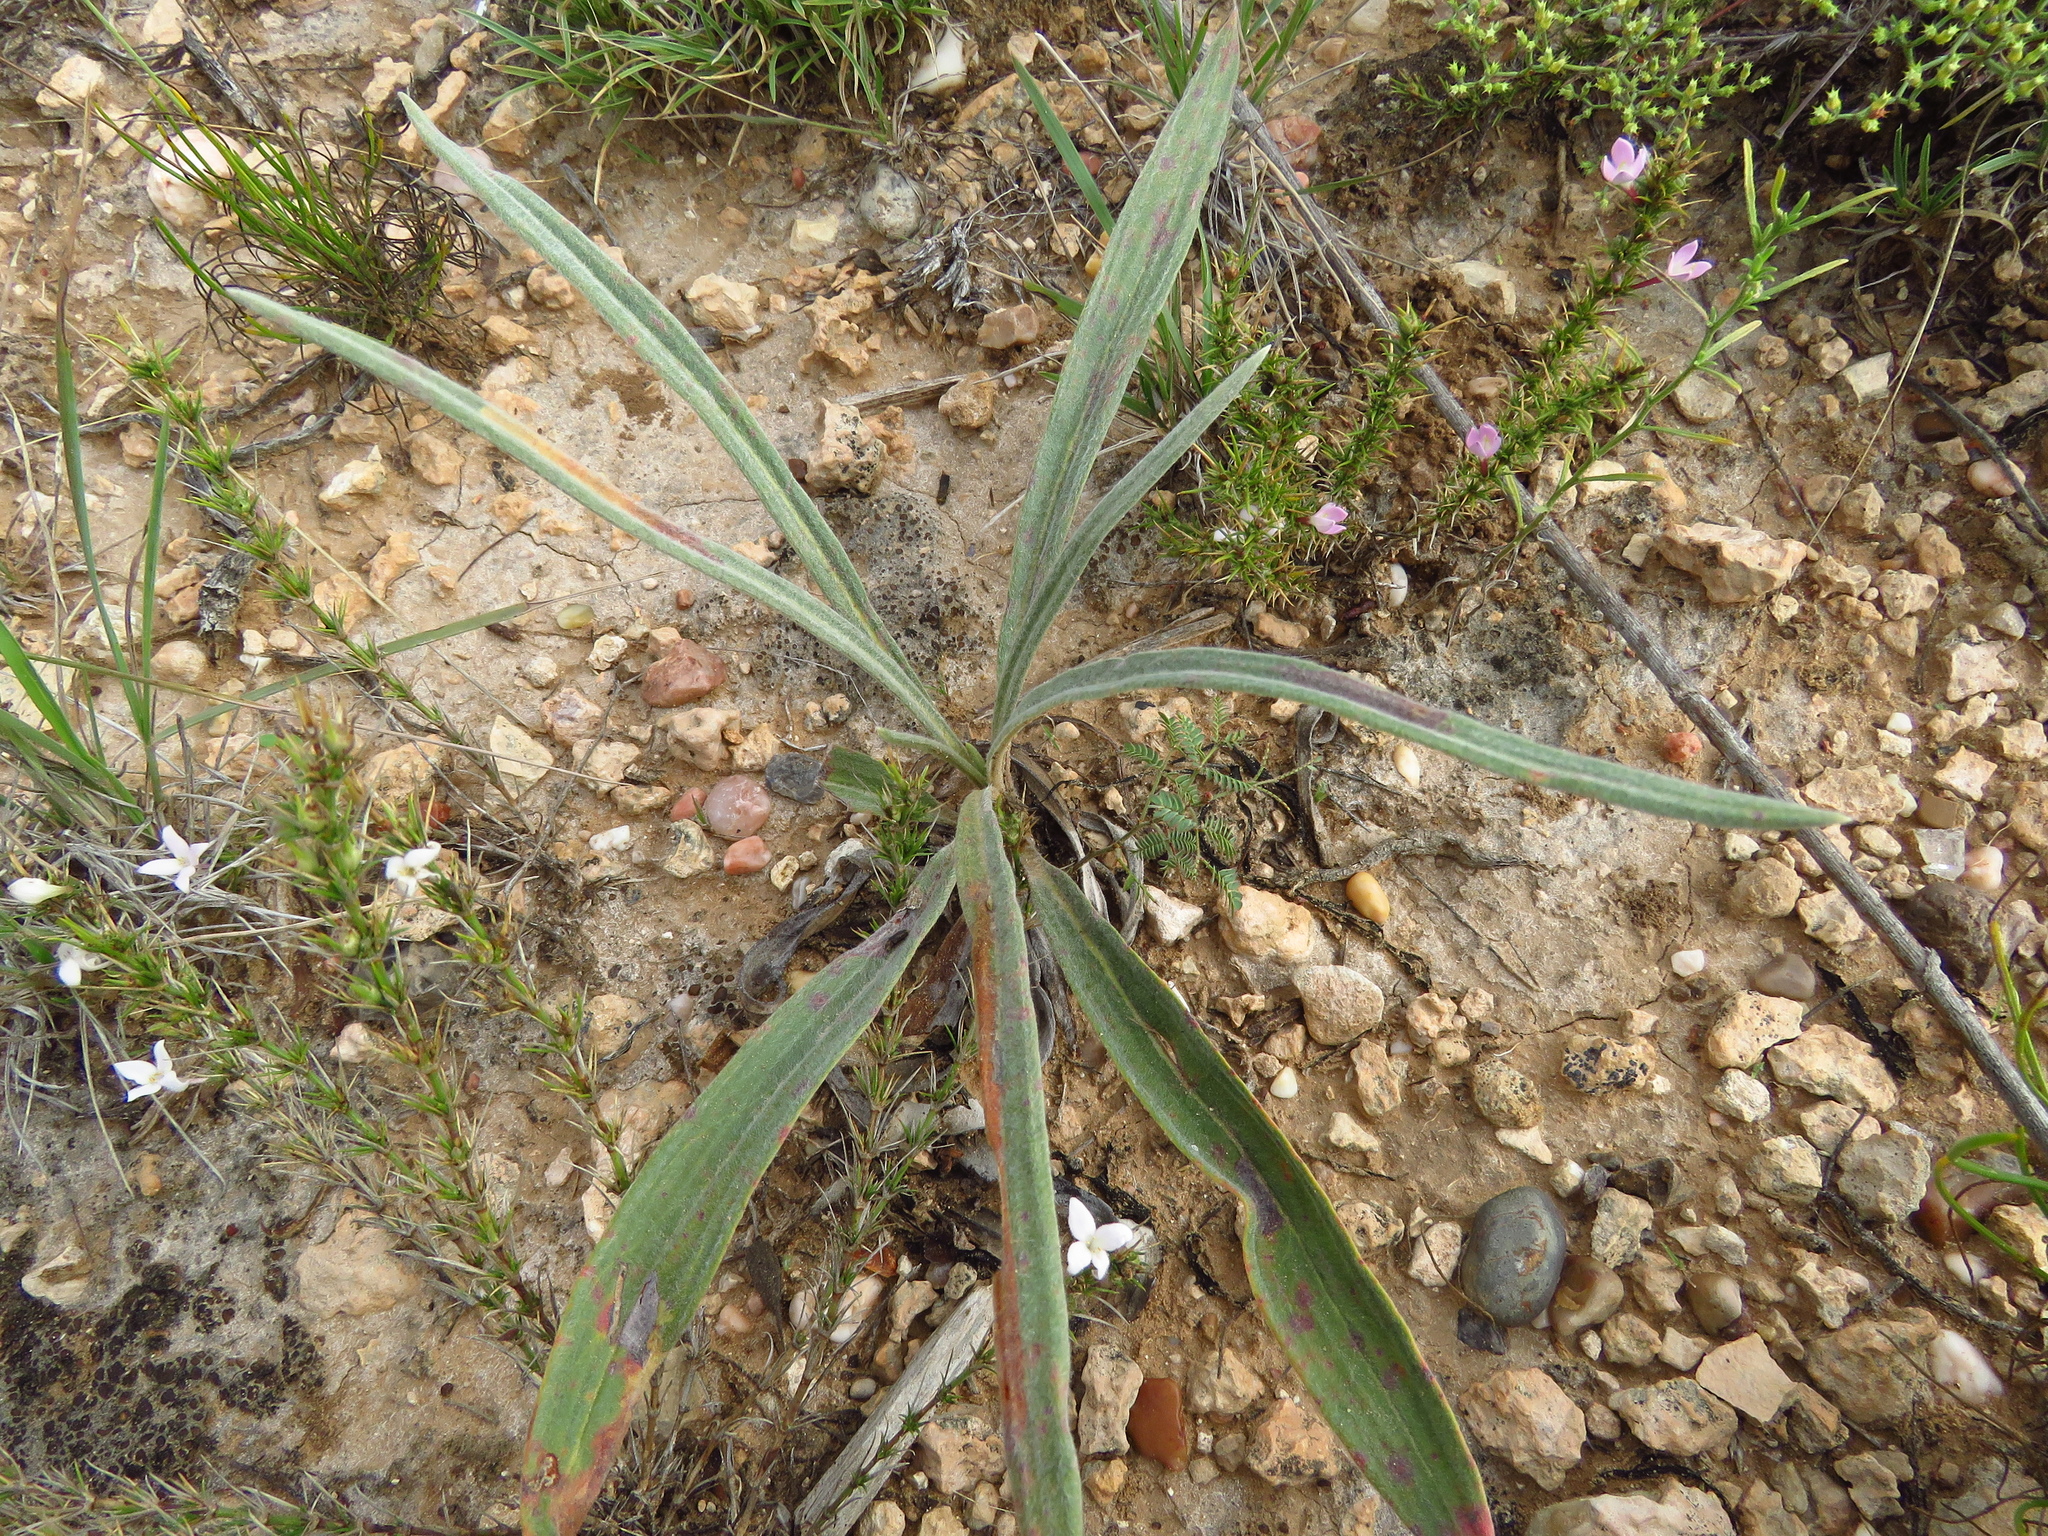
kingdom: Plantae
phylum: Tracheophyta
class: Magnoliopsida
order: Caryophyllales
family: Polygonaceae
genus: Eriogonum
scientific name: Eriogonum longifolium
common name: Longleaf wild buckwheat
